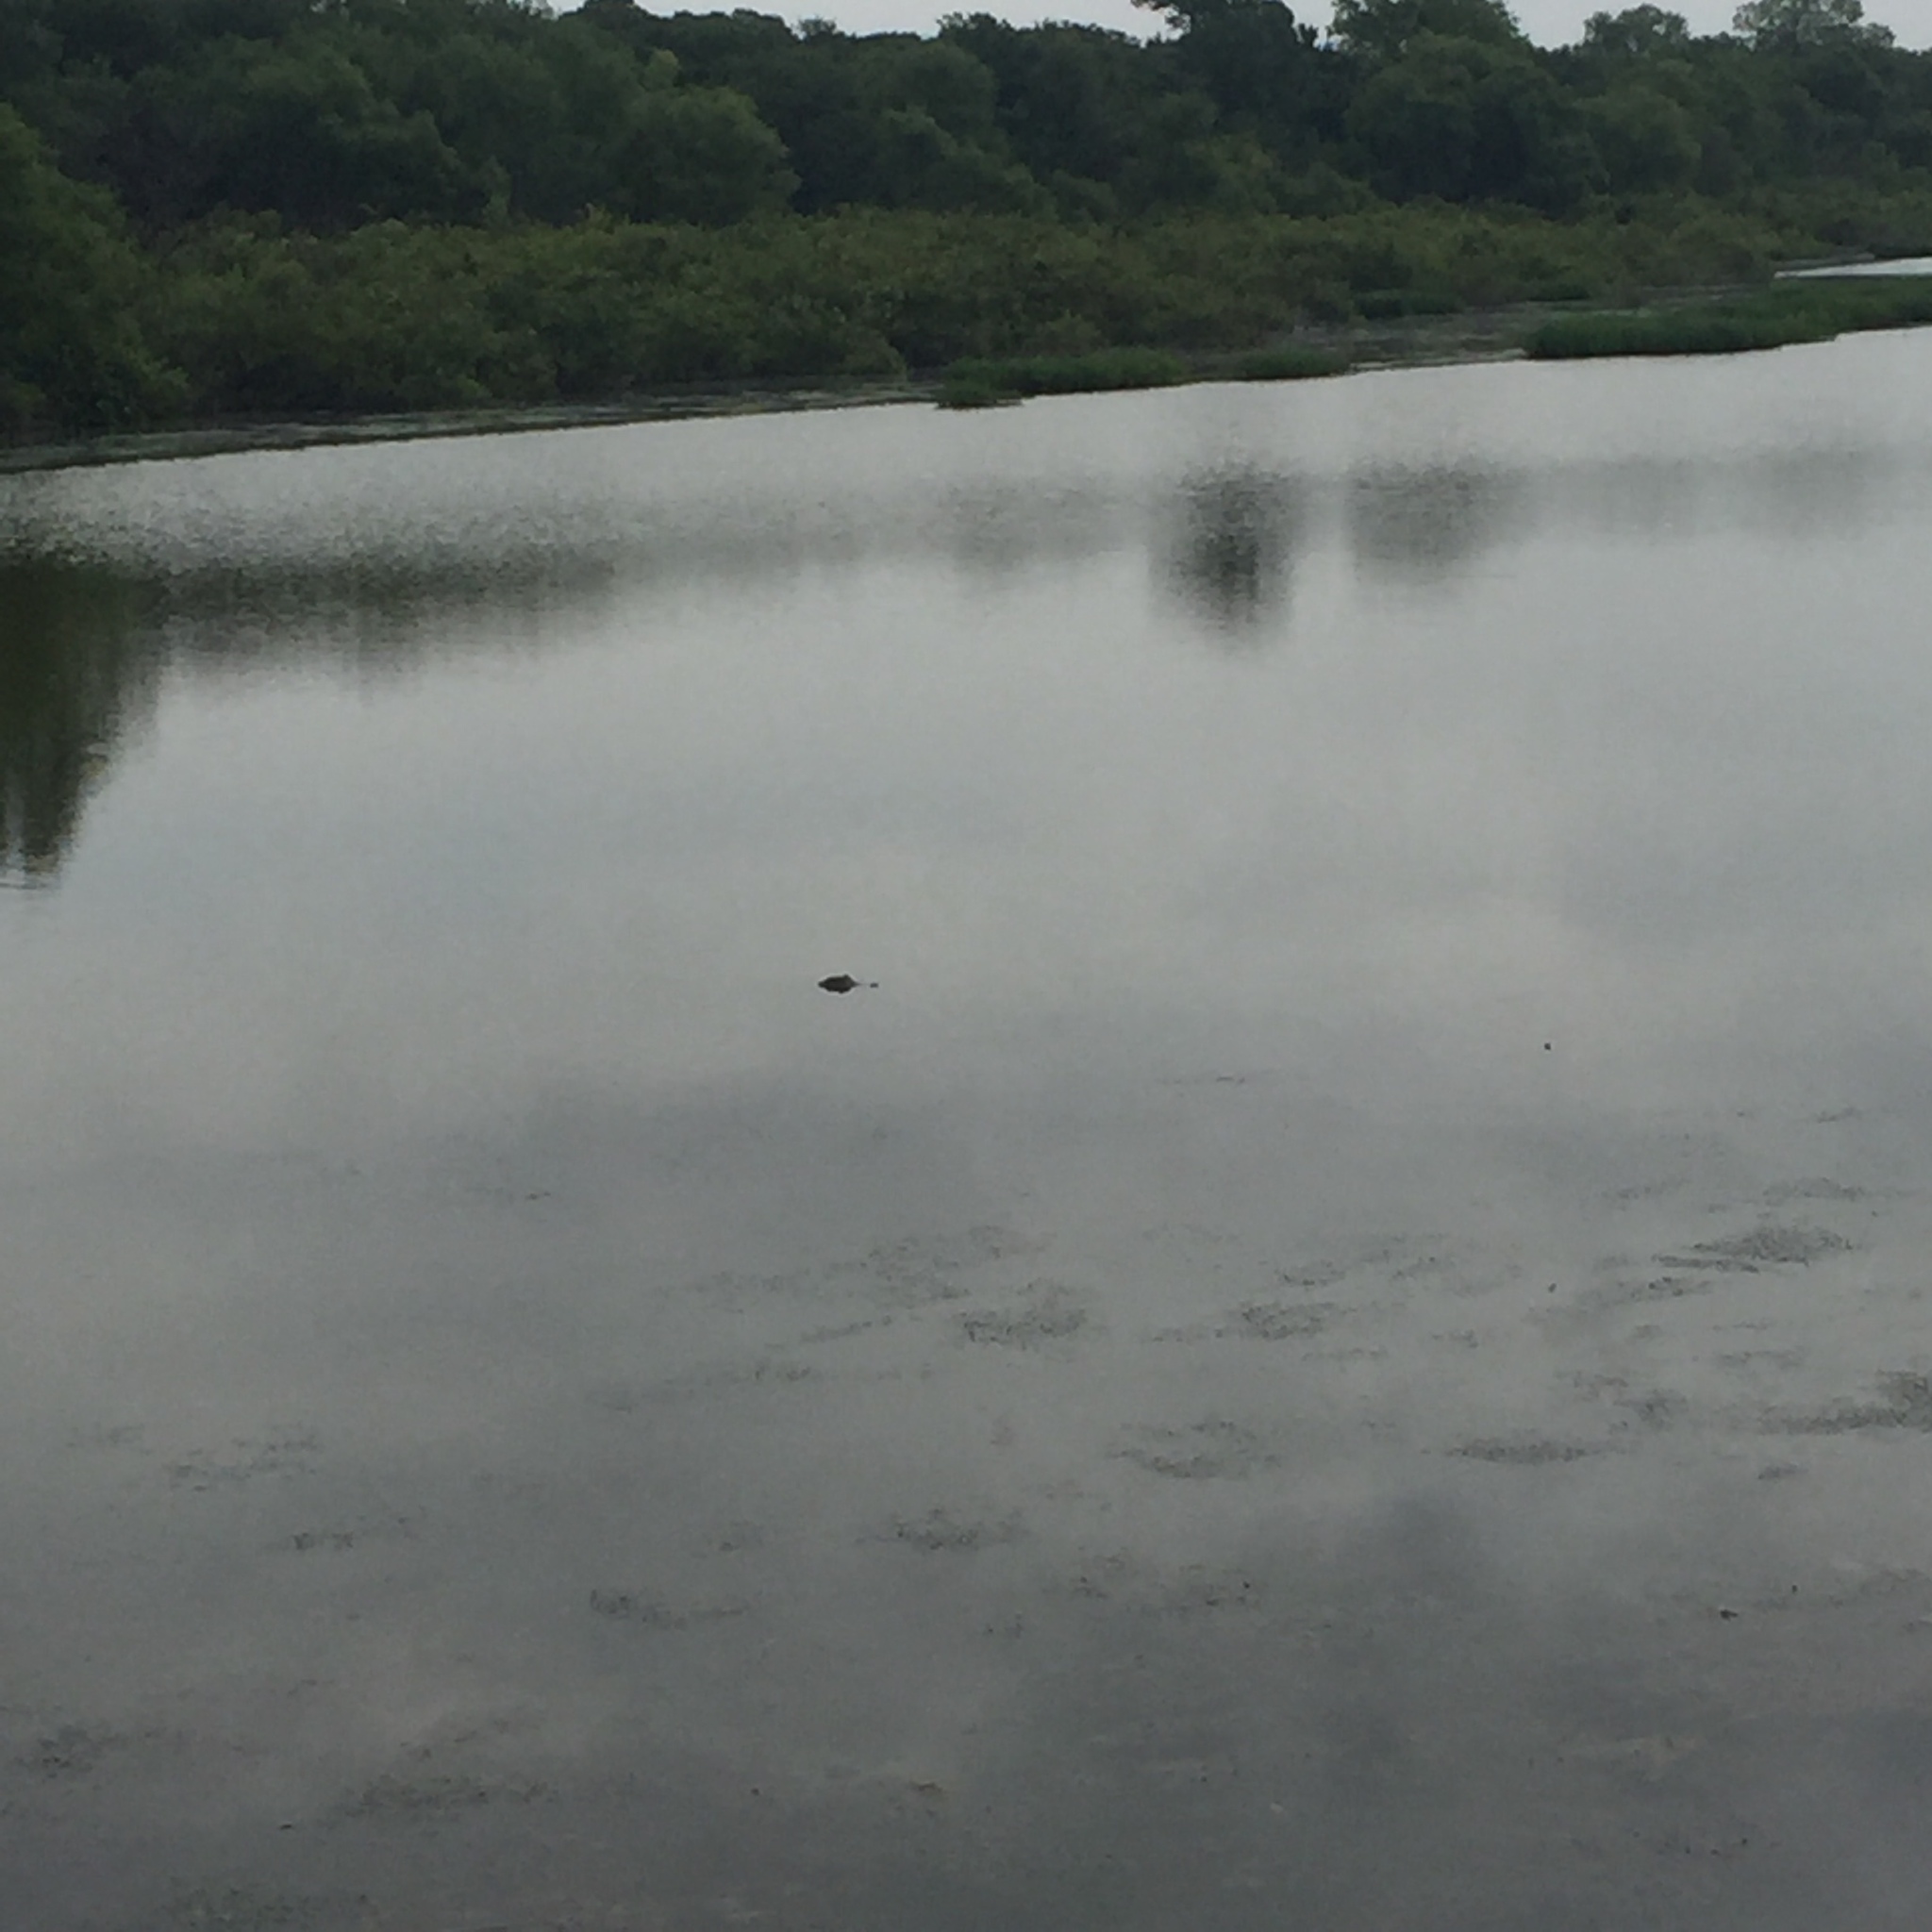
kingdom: Animalia
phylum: Chordata
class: Crocodylia
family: Alligatoridae
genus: Alligator
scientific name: Alligator mississippiensis
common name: American alligator
